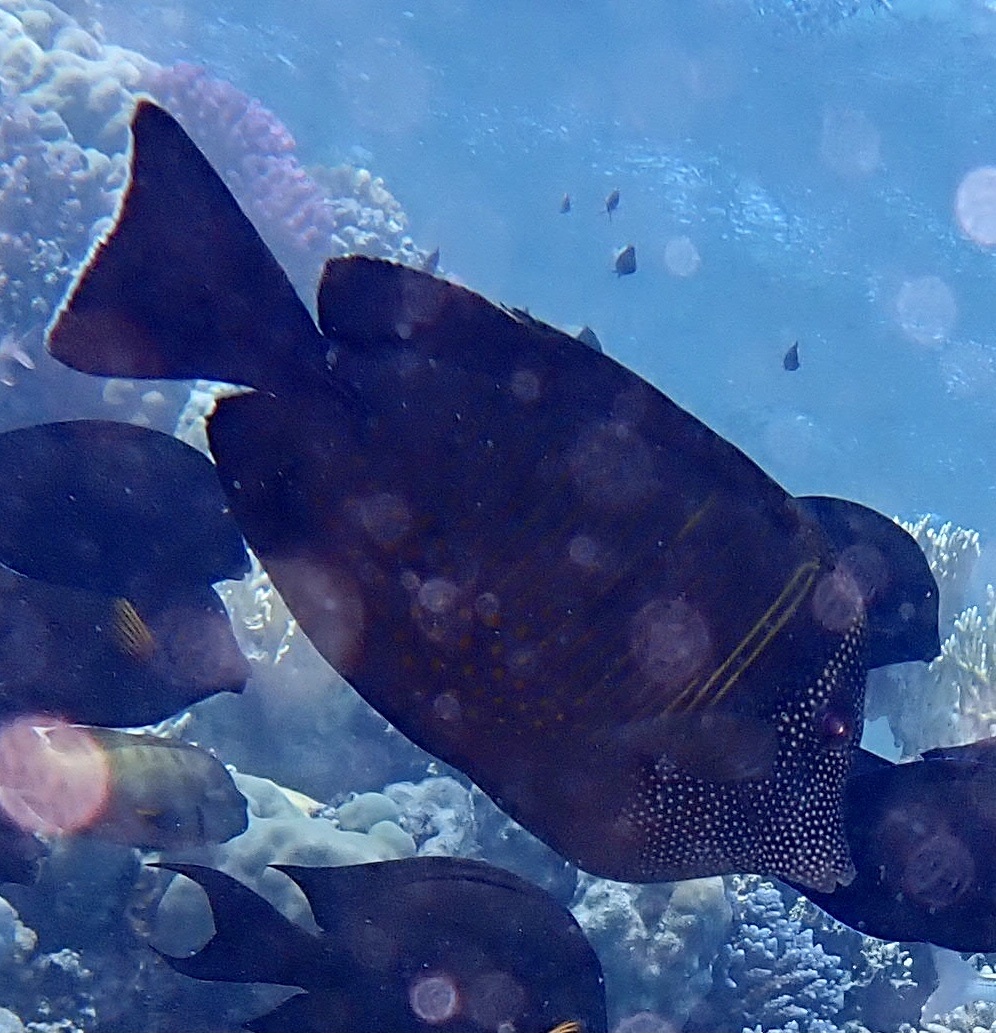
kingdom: Animalia
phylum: Chordata
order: Perciformes
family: Acanthuridae
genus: Zebrasoma
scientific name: Zebrasoma desjardinii
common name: Desjardin's sailfin tang
